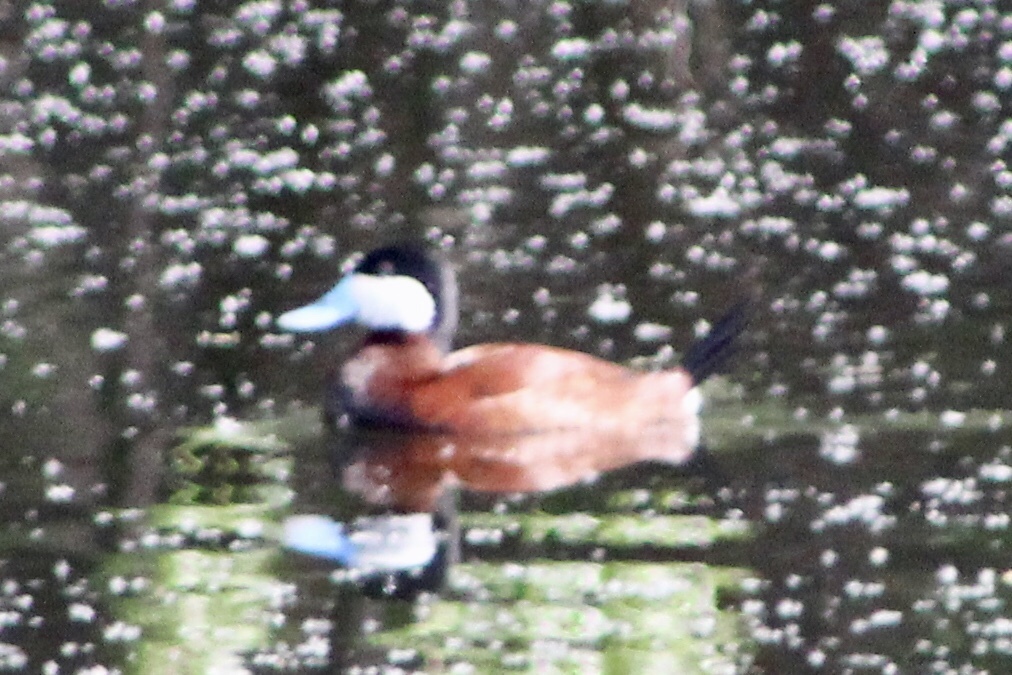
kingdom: Animalia
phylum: Chordata
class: Aves
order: Anseriformes
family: Anatidae
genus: Oxyura
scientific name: Oxyura jamaicensis
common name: Ruddy duck
